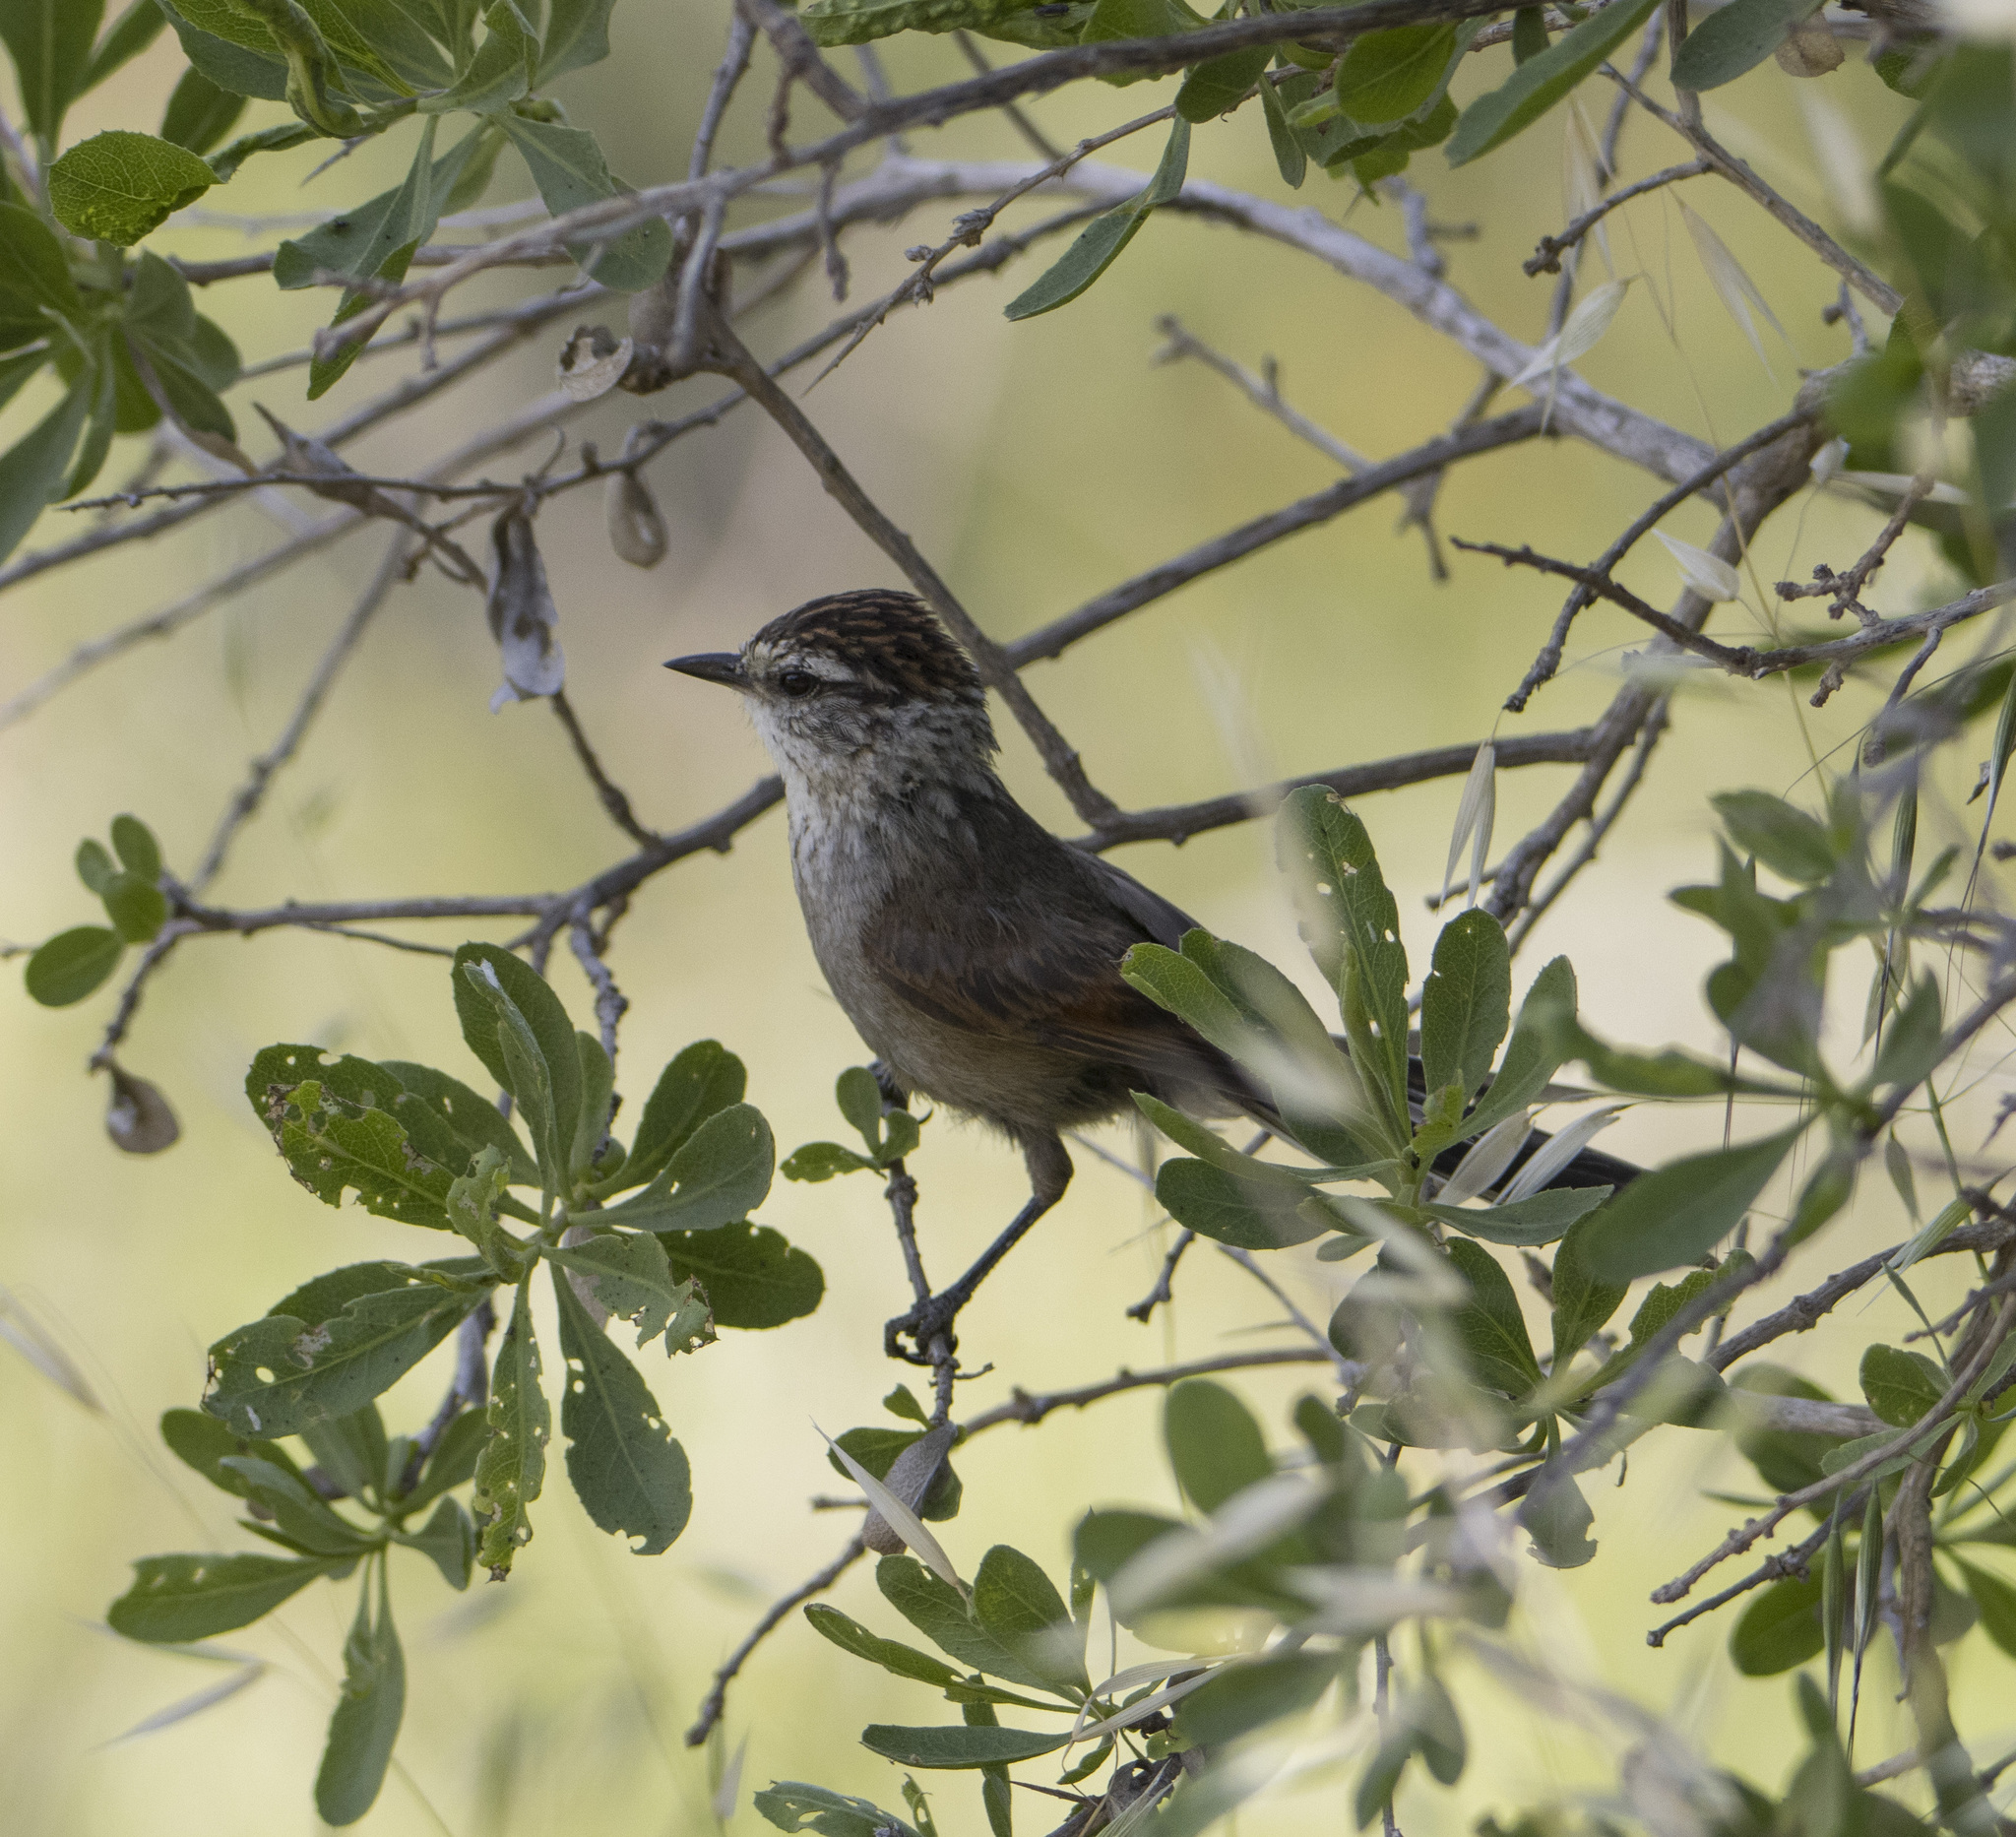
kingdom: Animalia
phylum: Chordata
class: Aves
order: Passeriformes
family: Furnariidae
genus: Leptasthenura
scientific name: Leptasthenura aegithaloides
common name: Plain-mantled tit-spinetail
